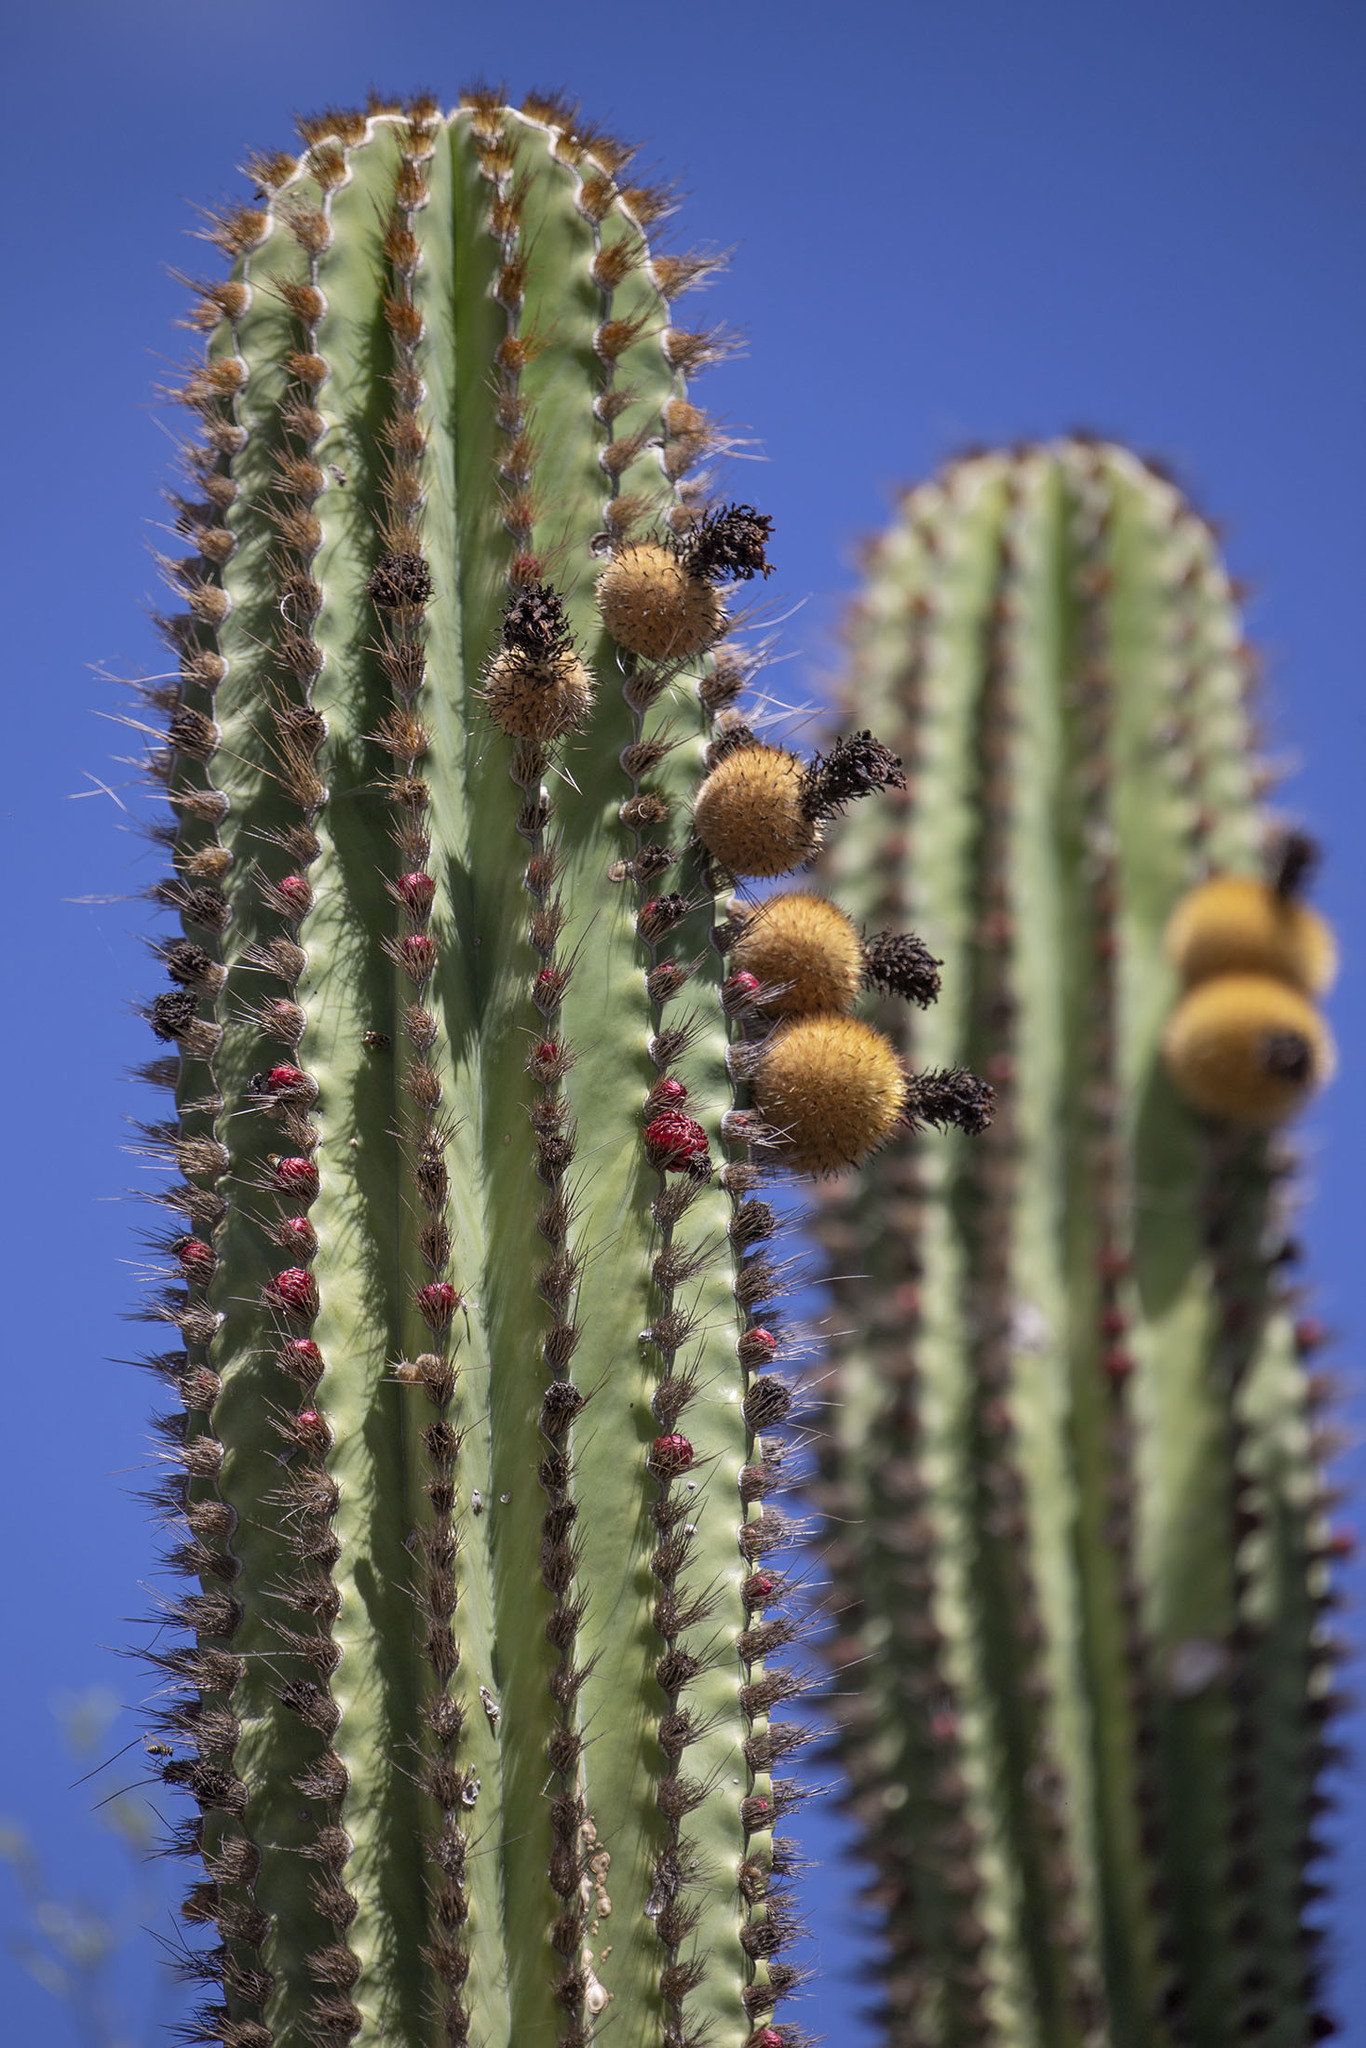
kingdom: Plantae
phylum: Tracheophyta
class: Magnoliopsida
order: Caryophyllales
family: Cactaceae
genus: Pachycereus
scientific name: Pachycereus pecten-aboriginum
